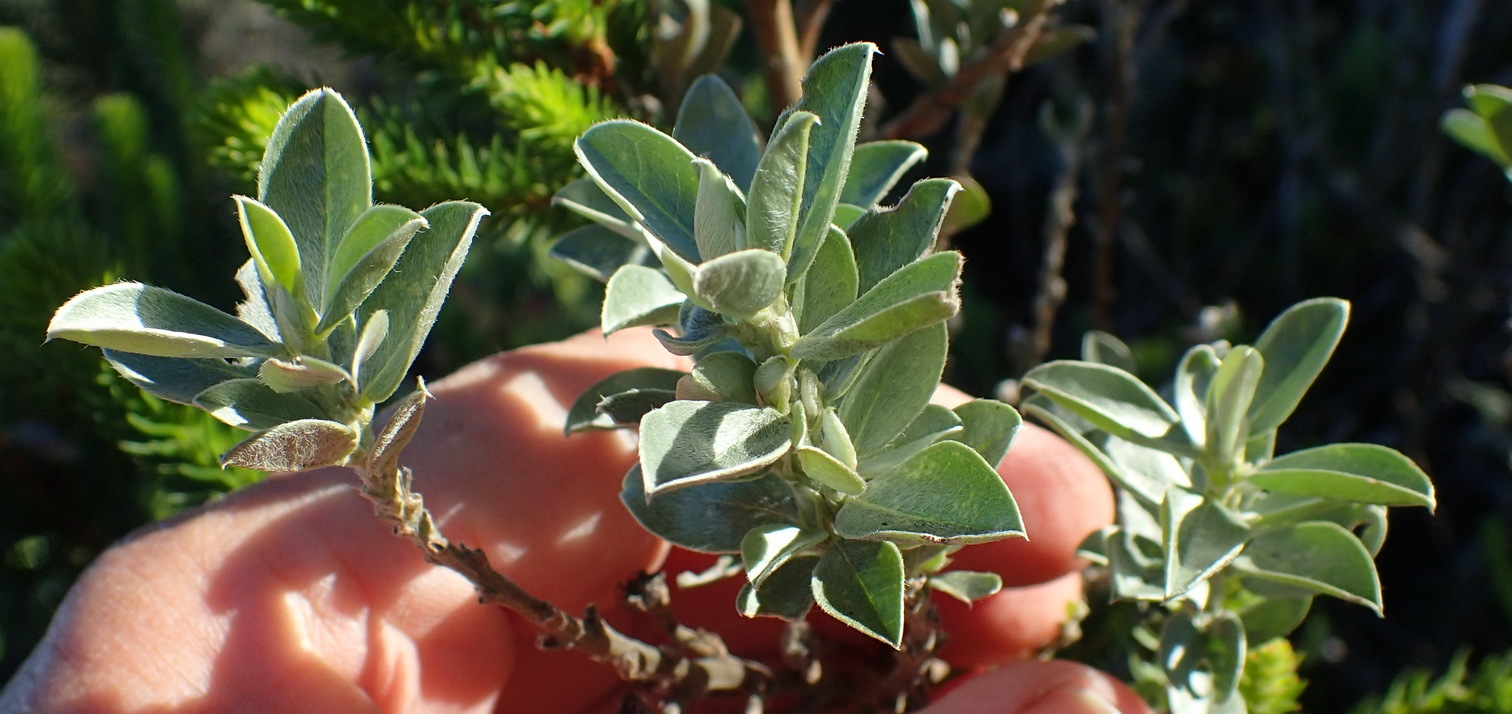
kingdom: Plantae
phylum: Tracheophyta
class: Magnoliopsida
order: Fabales
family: Fabaceae
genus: Podalyria
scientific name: Podalyria myrtillifolia
